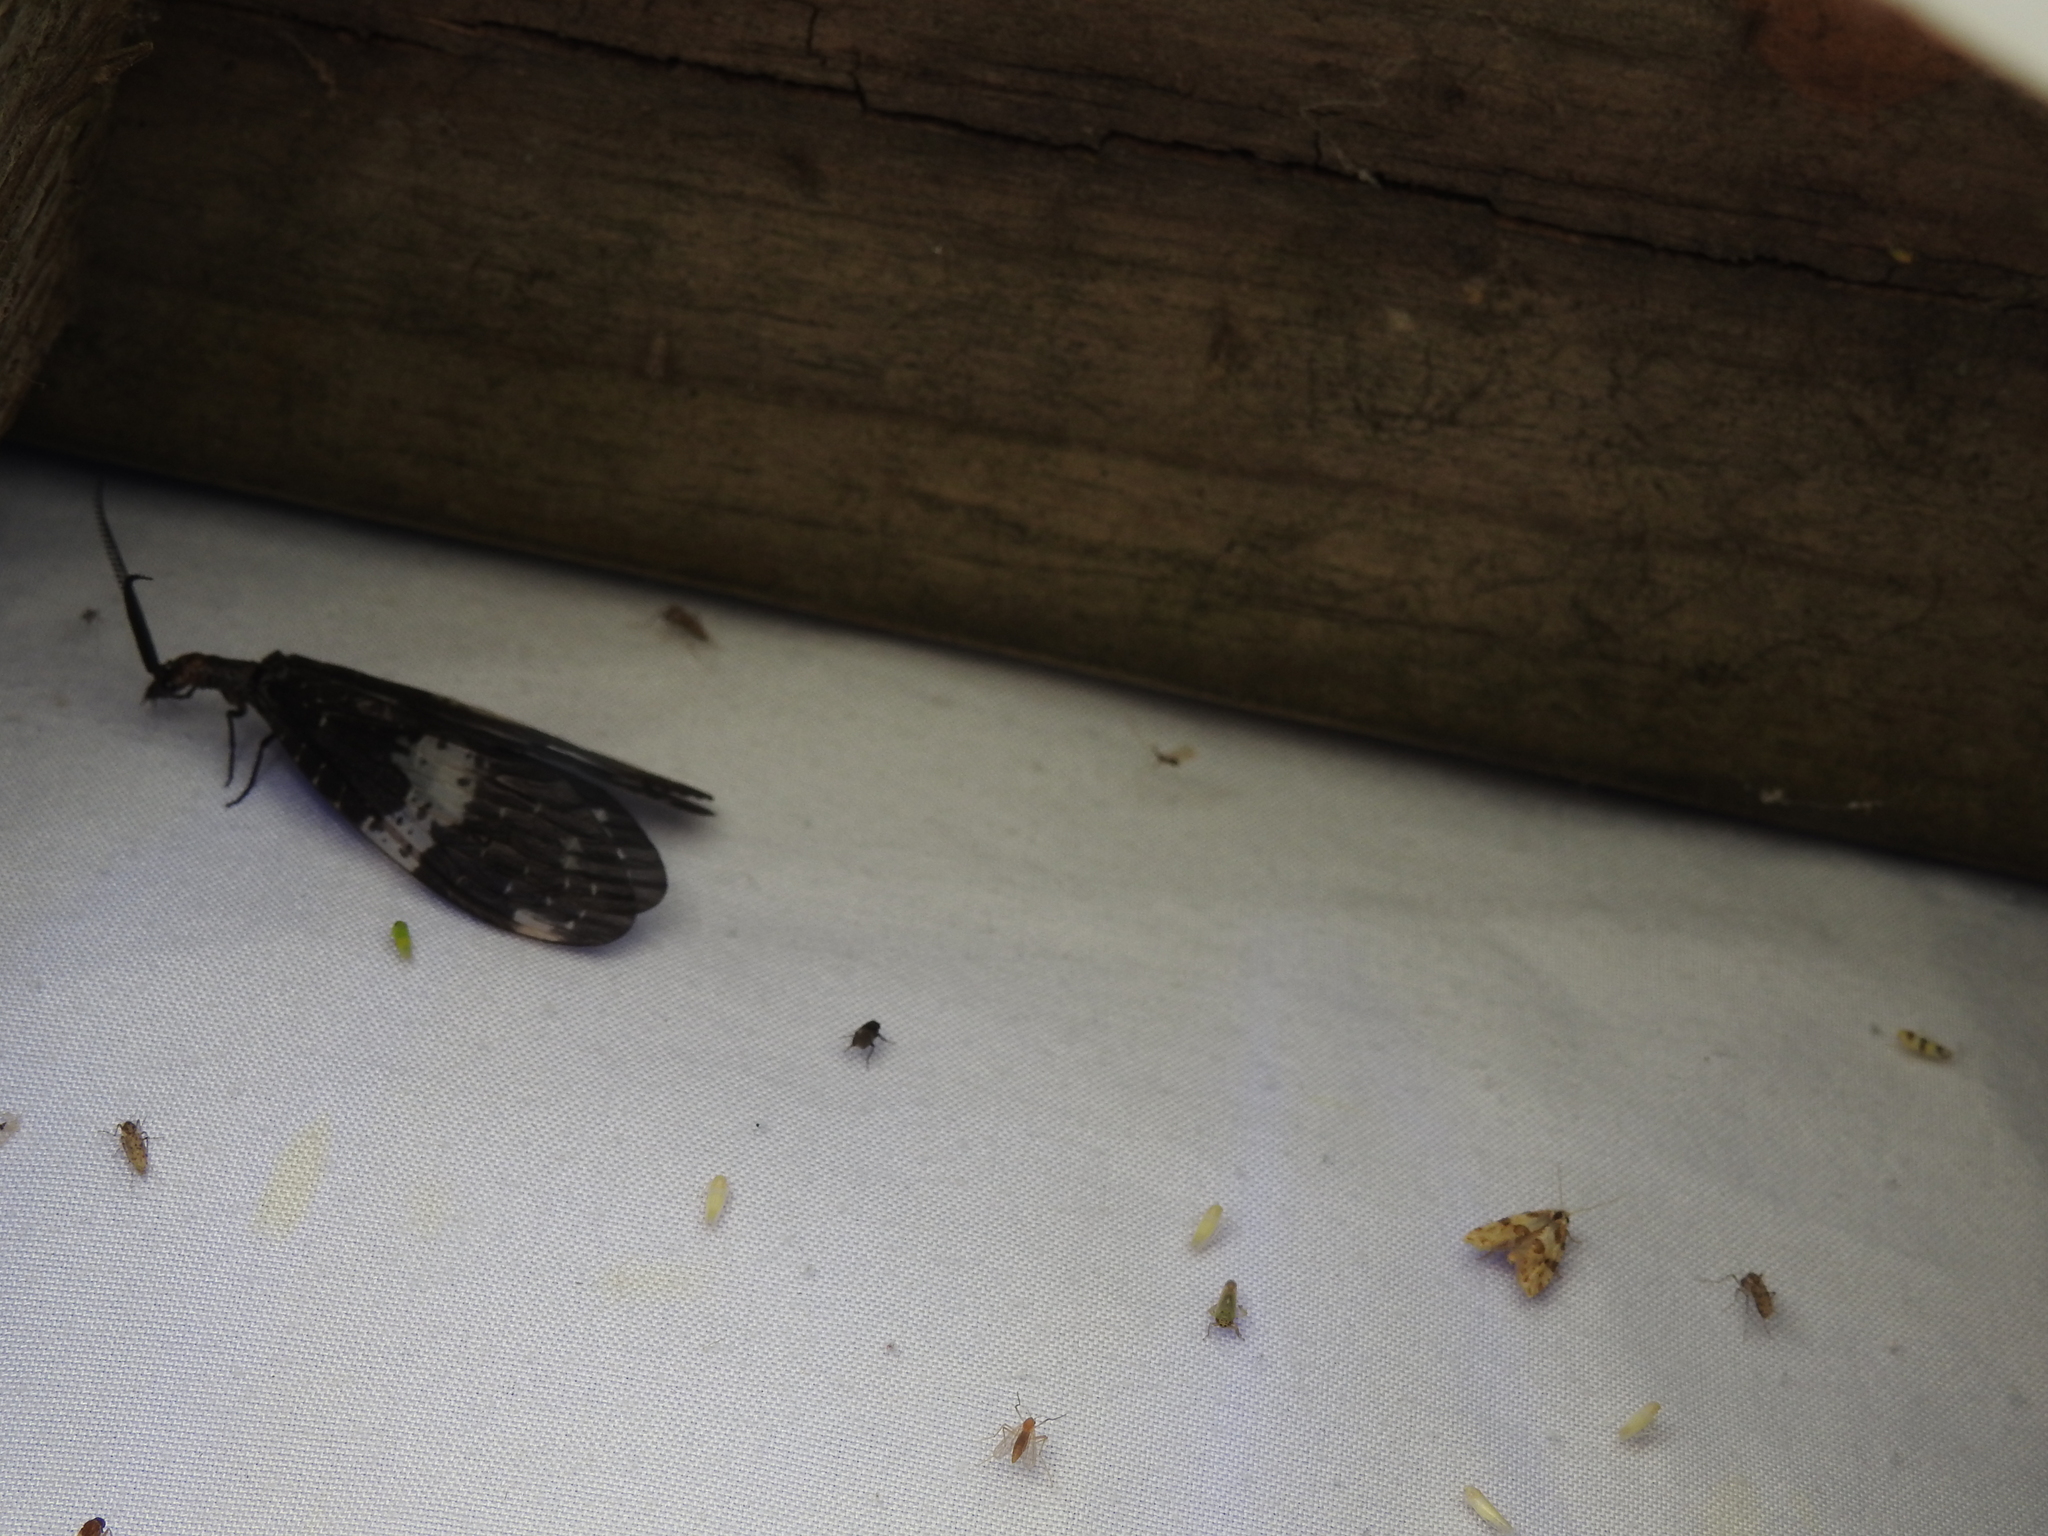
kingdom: Animalia
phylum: Arthropoda
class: Insecta
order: Megaloptera
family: Corydalidae
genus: Nigronia
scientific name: Nigronia fasciata
